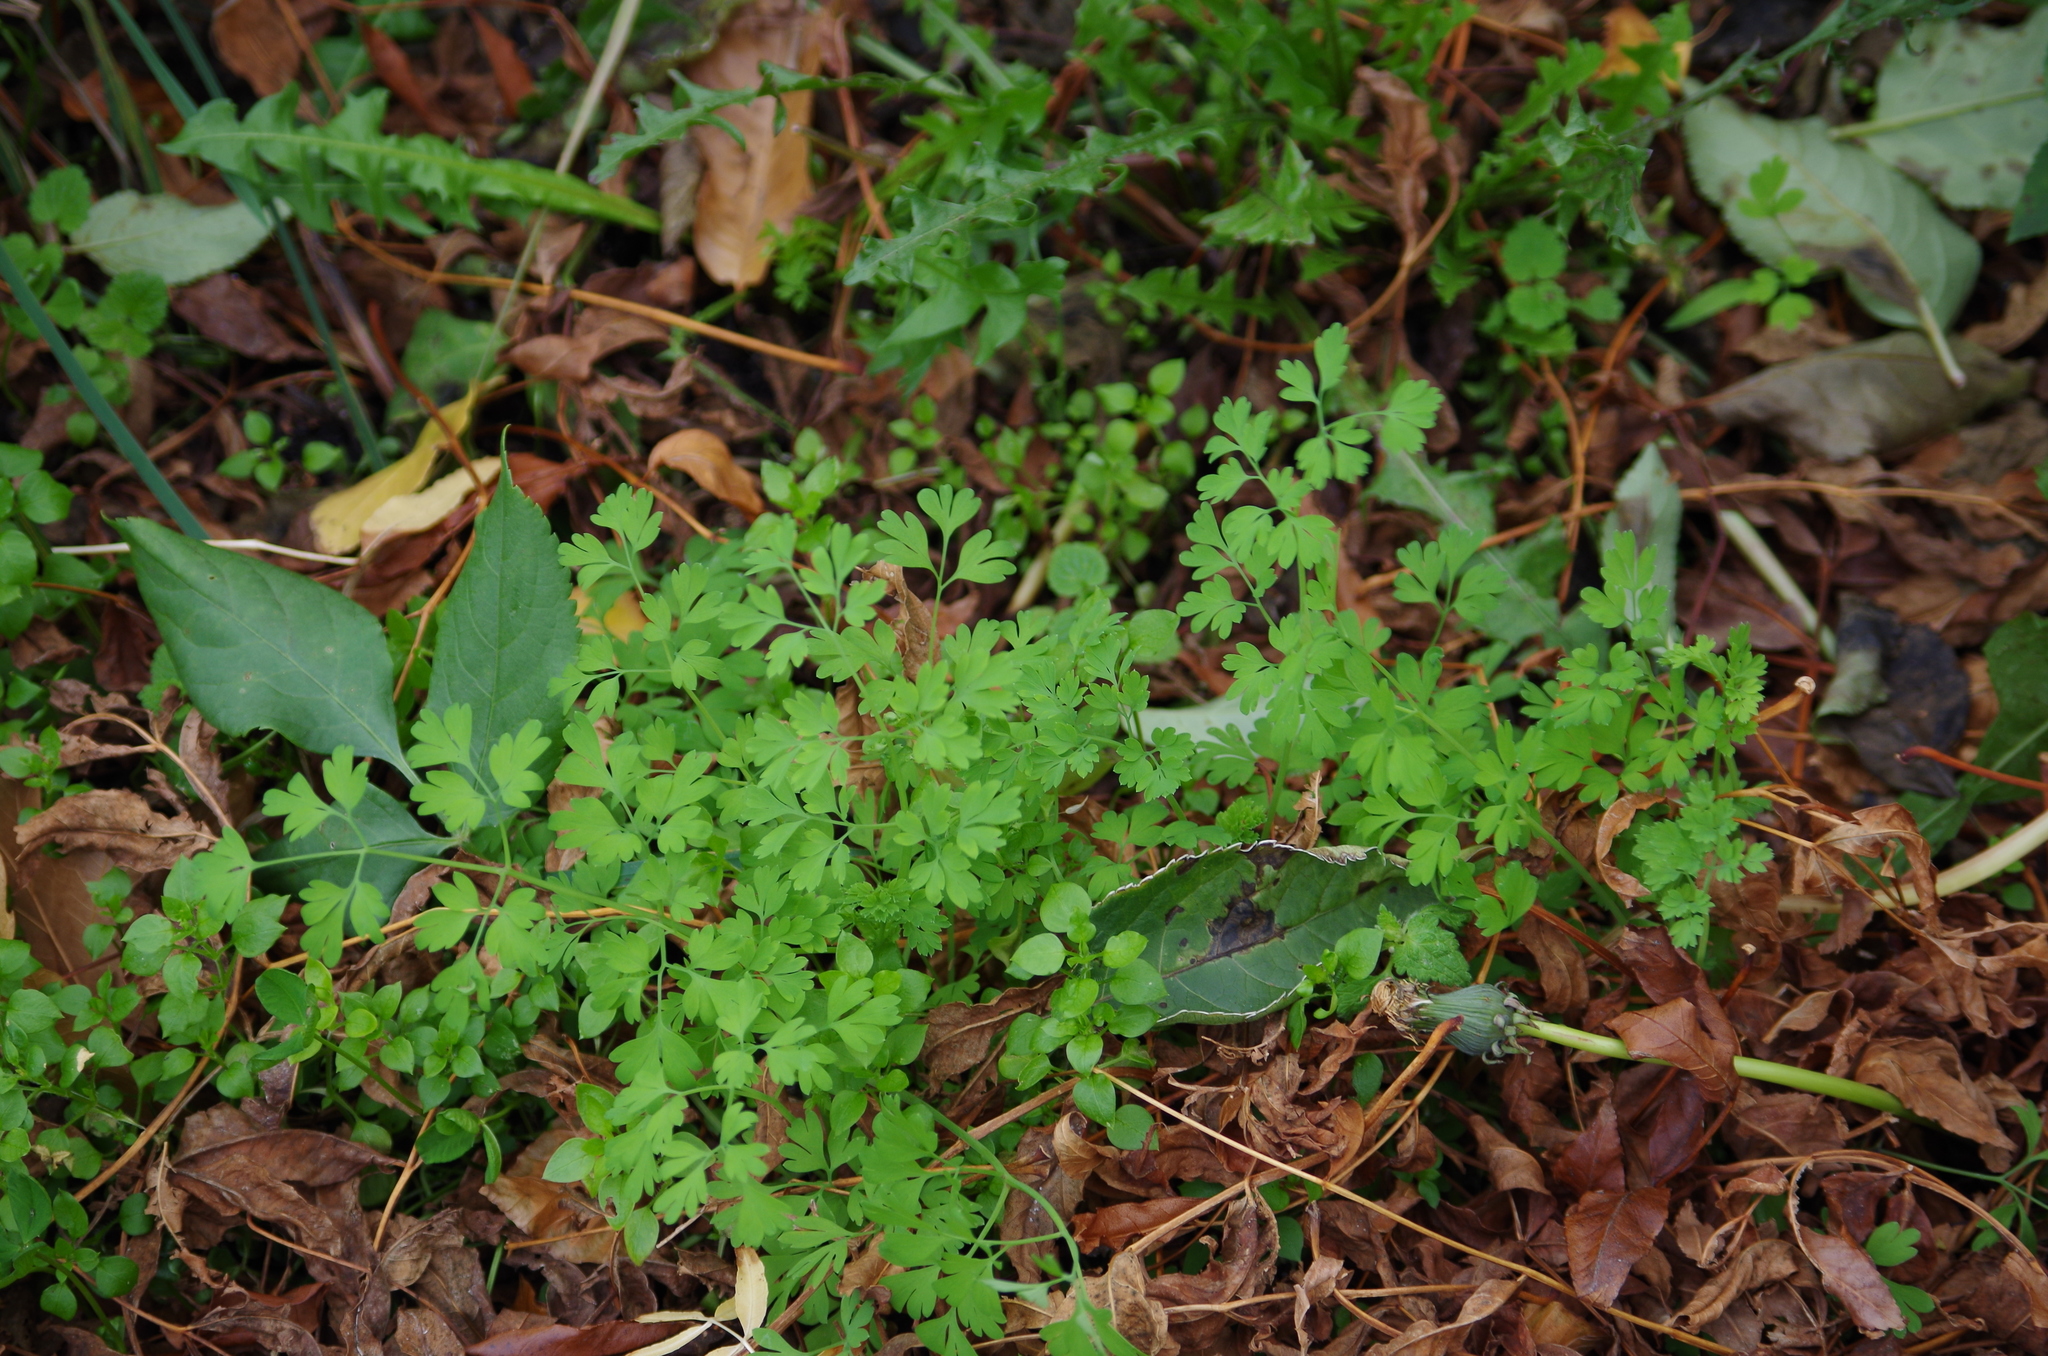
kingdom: Plantae
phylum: Tracheophyta
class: Magnoliopsida
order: Ranunculales
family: Papaveraceae
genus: Fumaria
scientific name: Fumaria muralis
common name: Common ramping-fumitory
